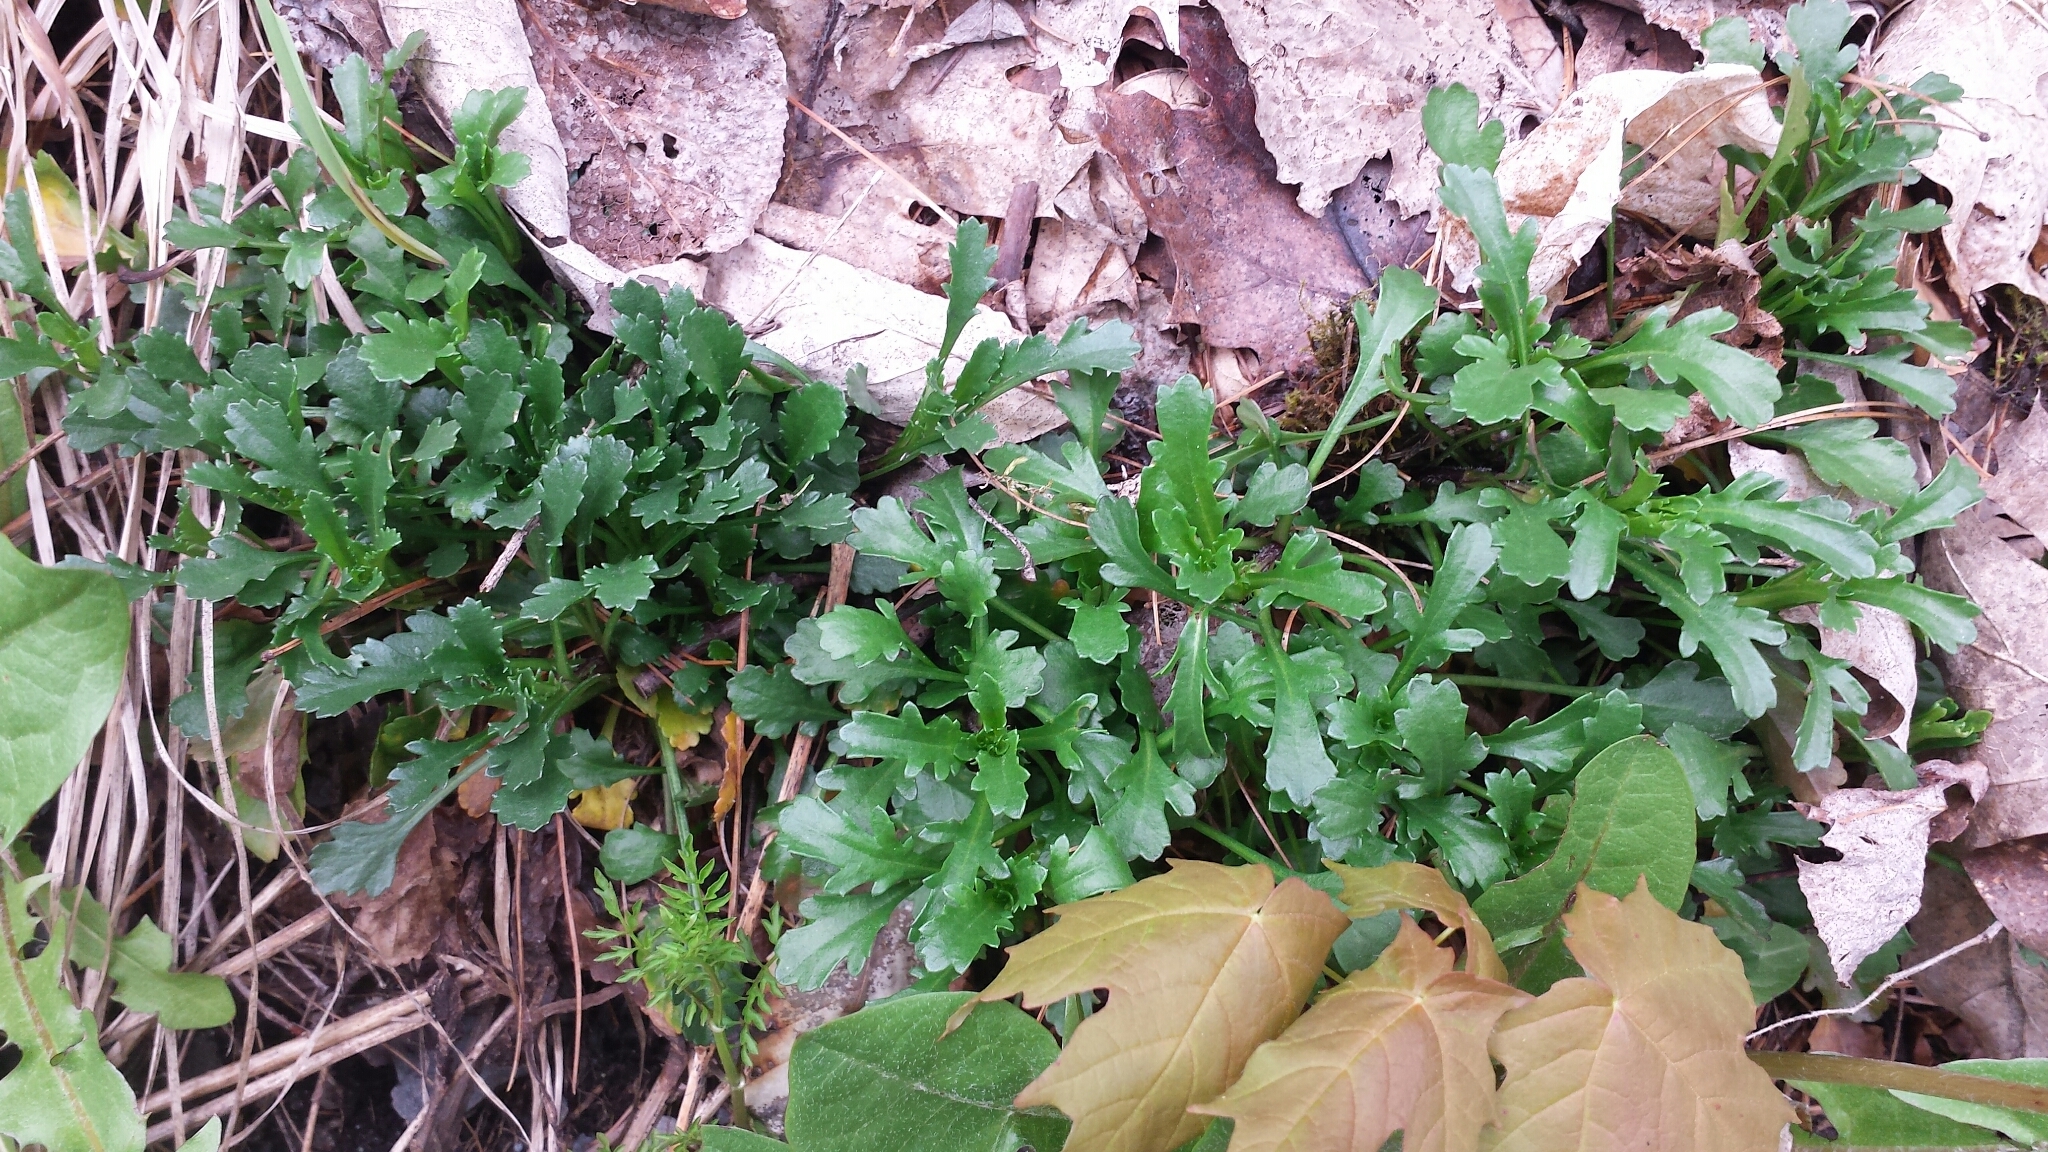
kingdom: Plantae
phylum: Tracheophyta
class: Magnoliopsida
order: Asterales
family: Asteraceae
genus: Leucanthemum
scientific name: Leucanthemum vulgare
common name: Oxeye daisy
